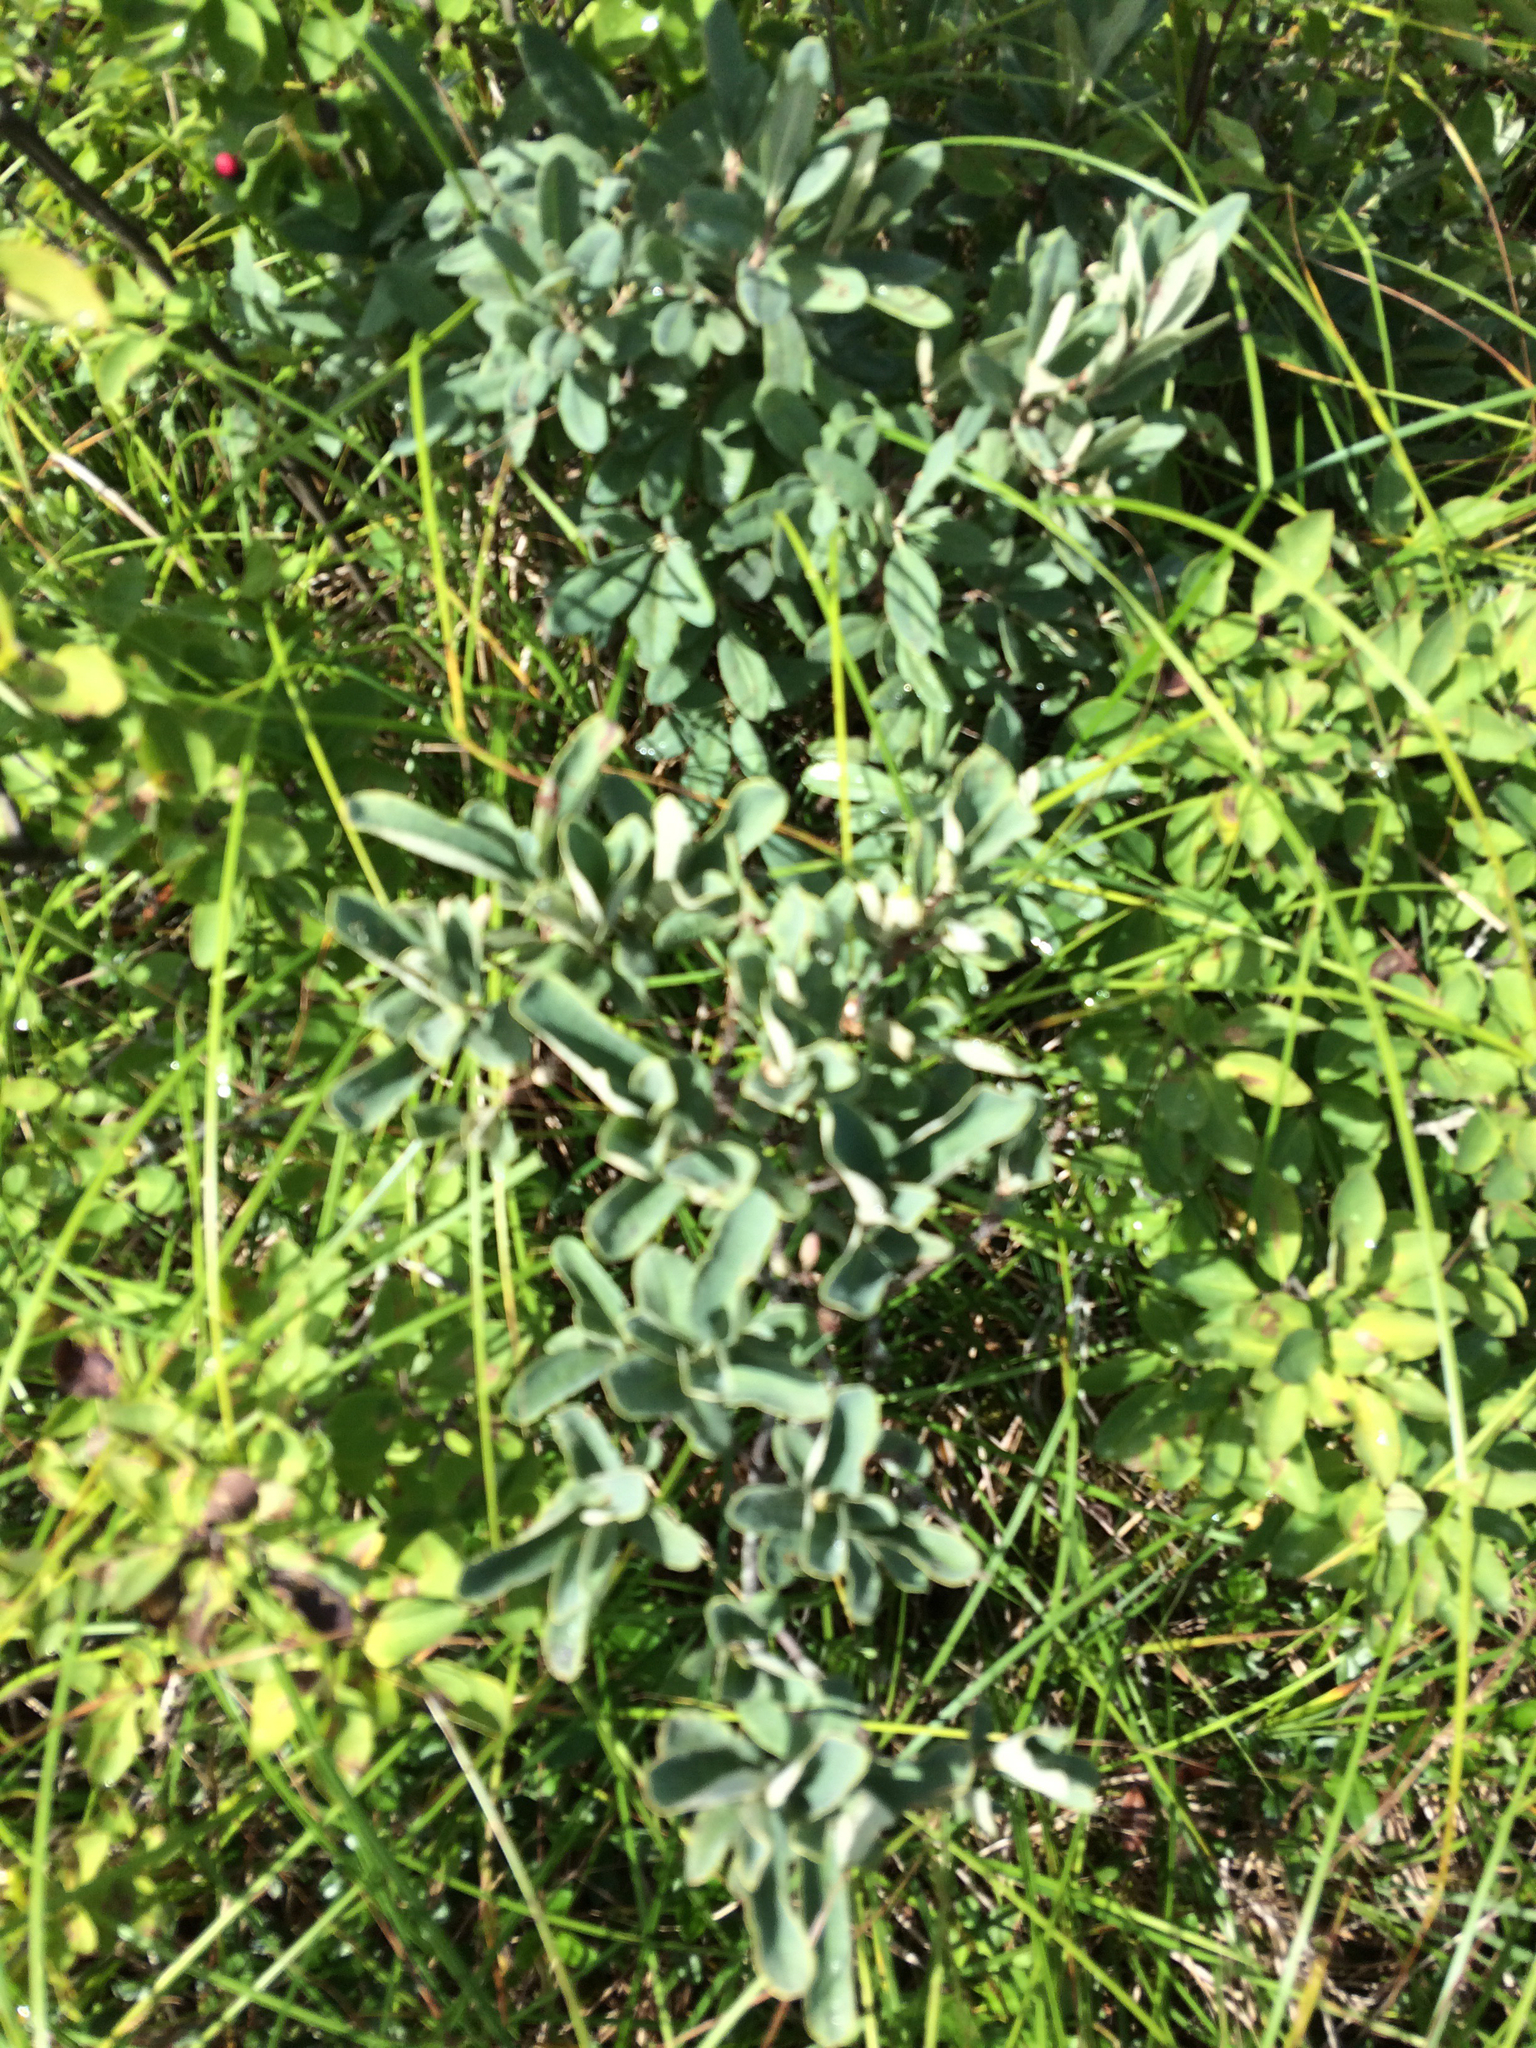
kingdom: Plantae
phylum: Tracheophyta
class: Magnoliopsida
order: Ericales
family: Ericaceae
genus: Rhododendron
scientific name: Rhododendron canadense
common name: Rhodora
